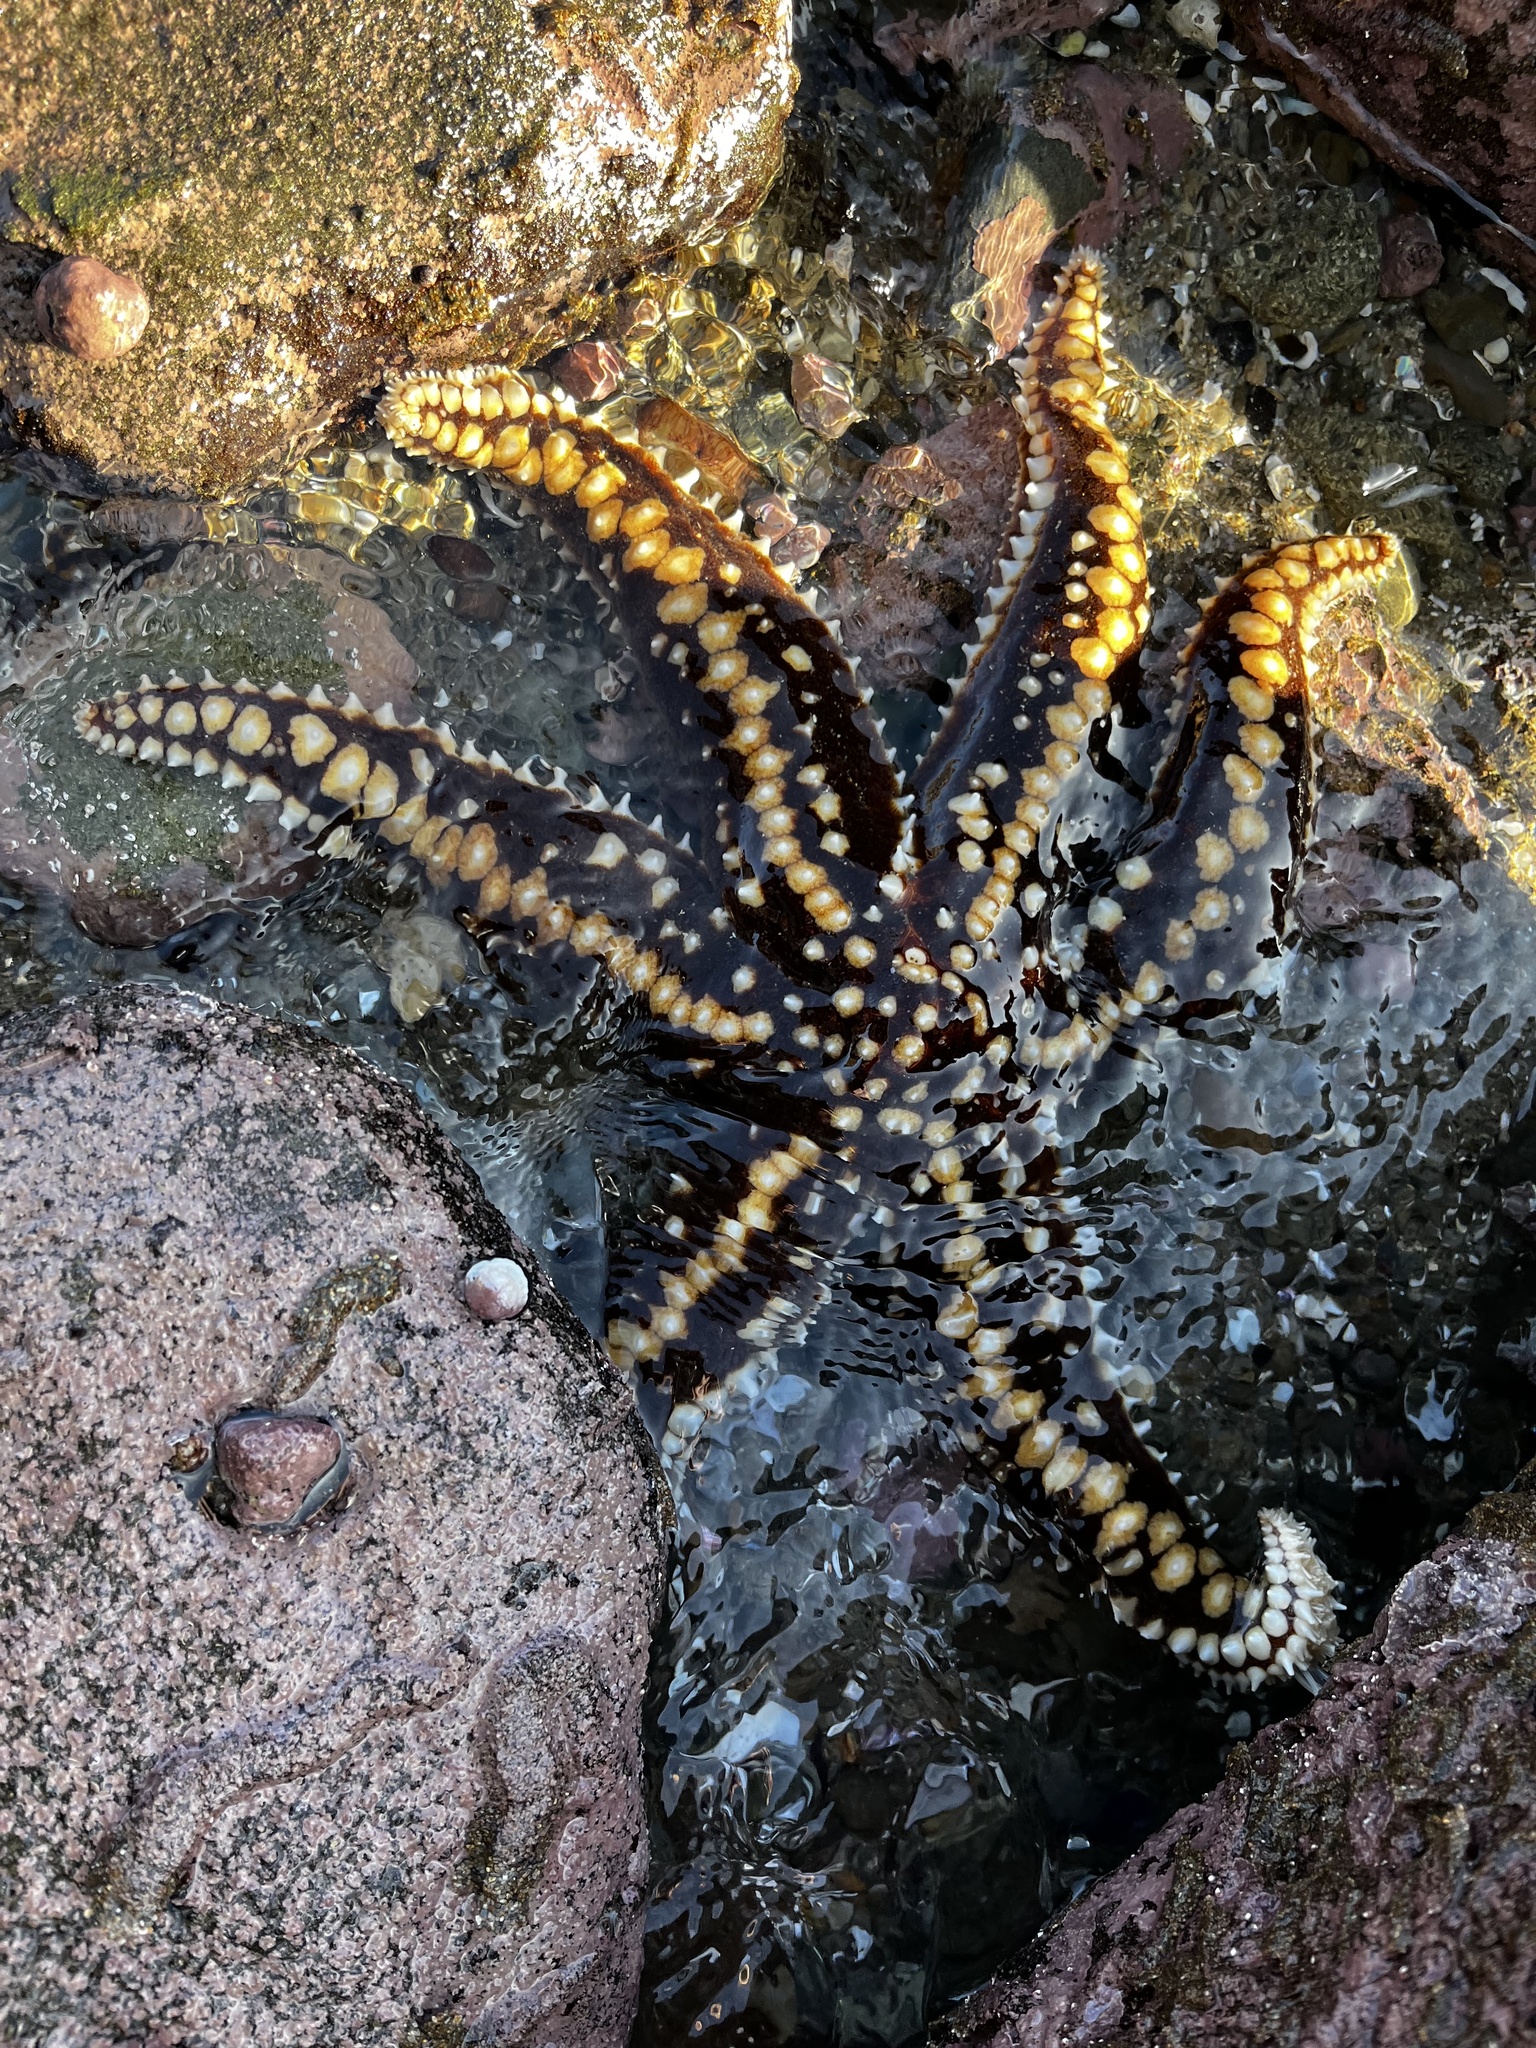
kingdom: Animalia
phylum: Echinodermata
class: Asteroidea
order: Forcipulatida
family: Asteriidae
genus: Meyenaster
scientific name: Meyenaster gelatinosus
